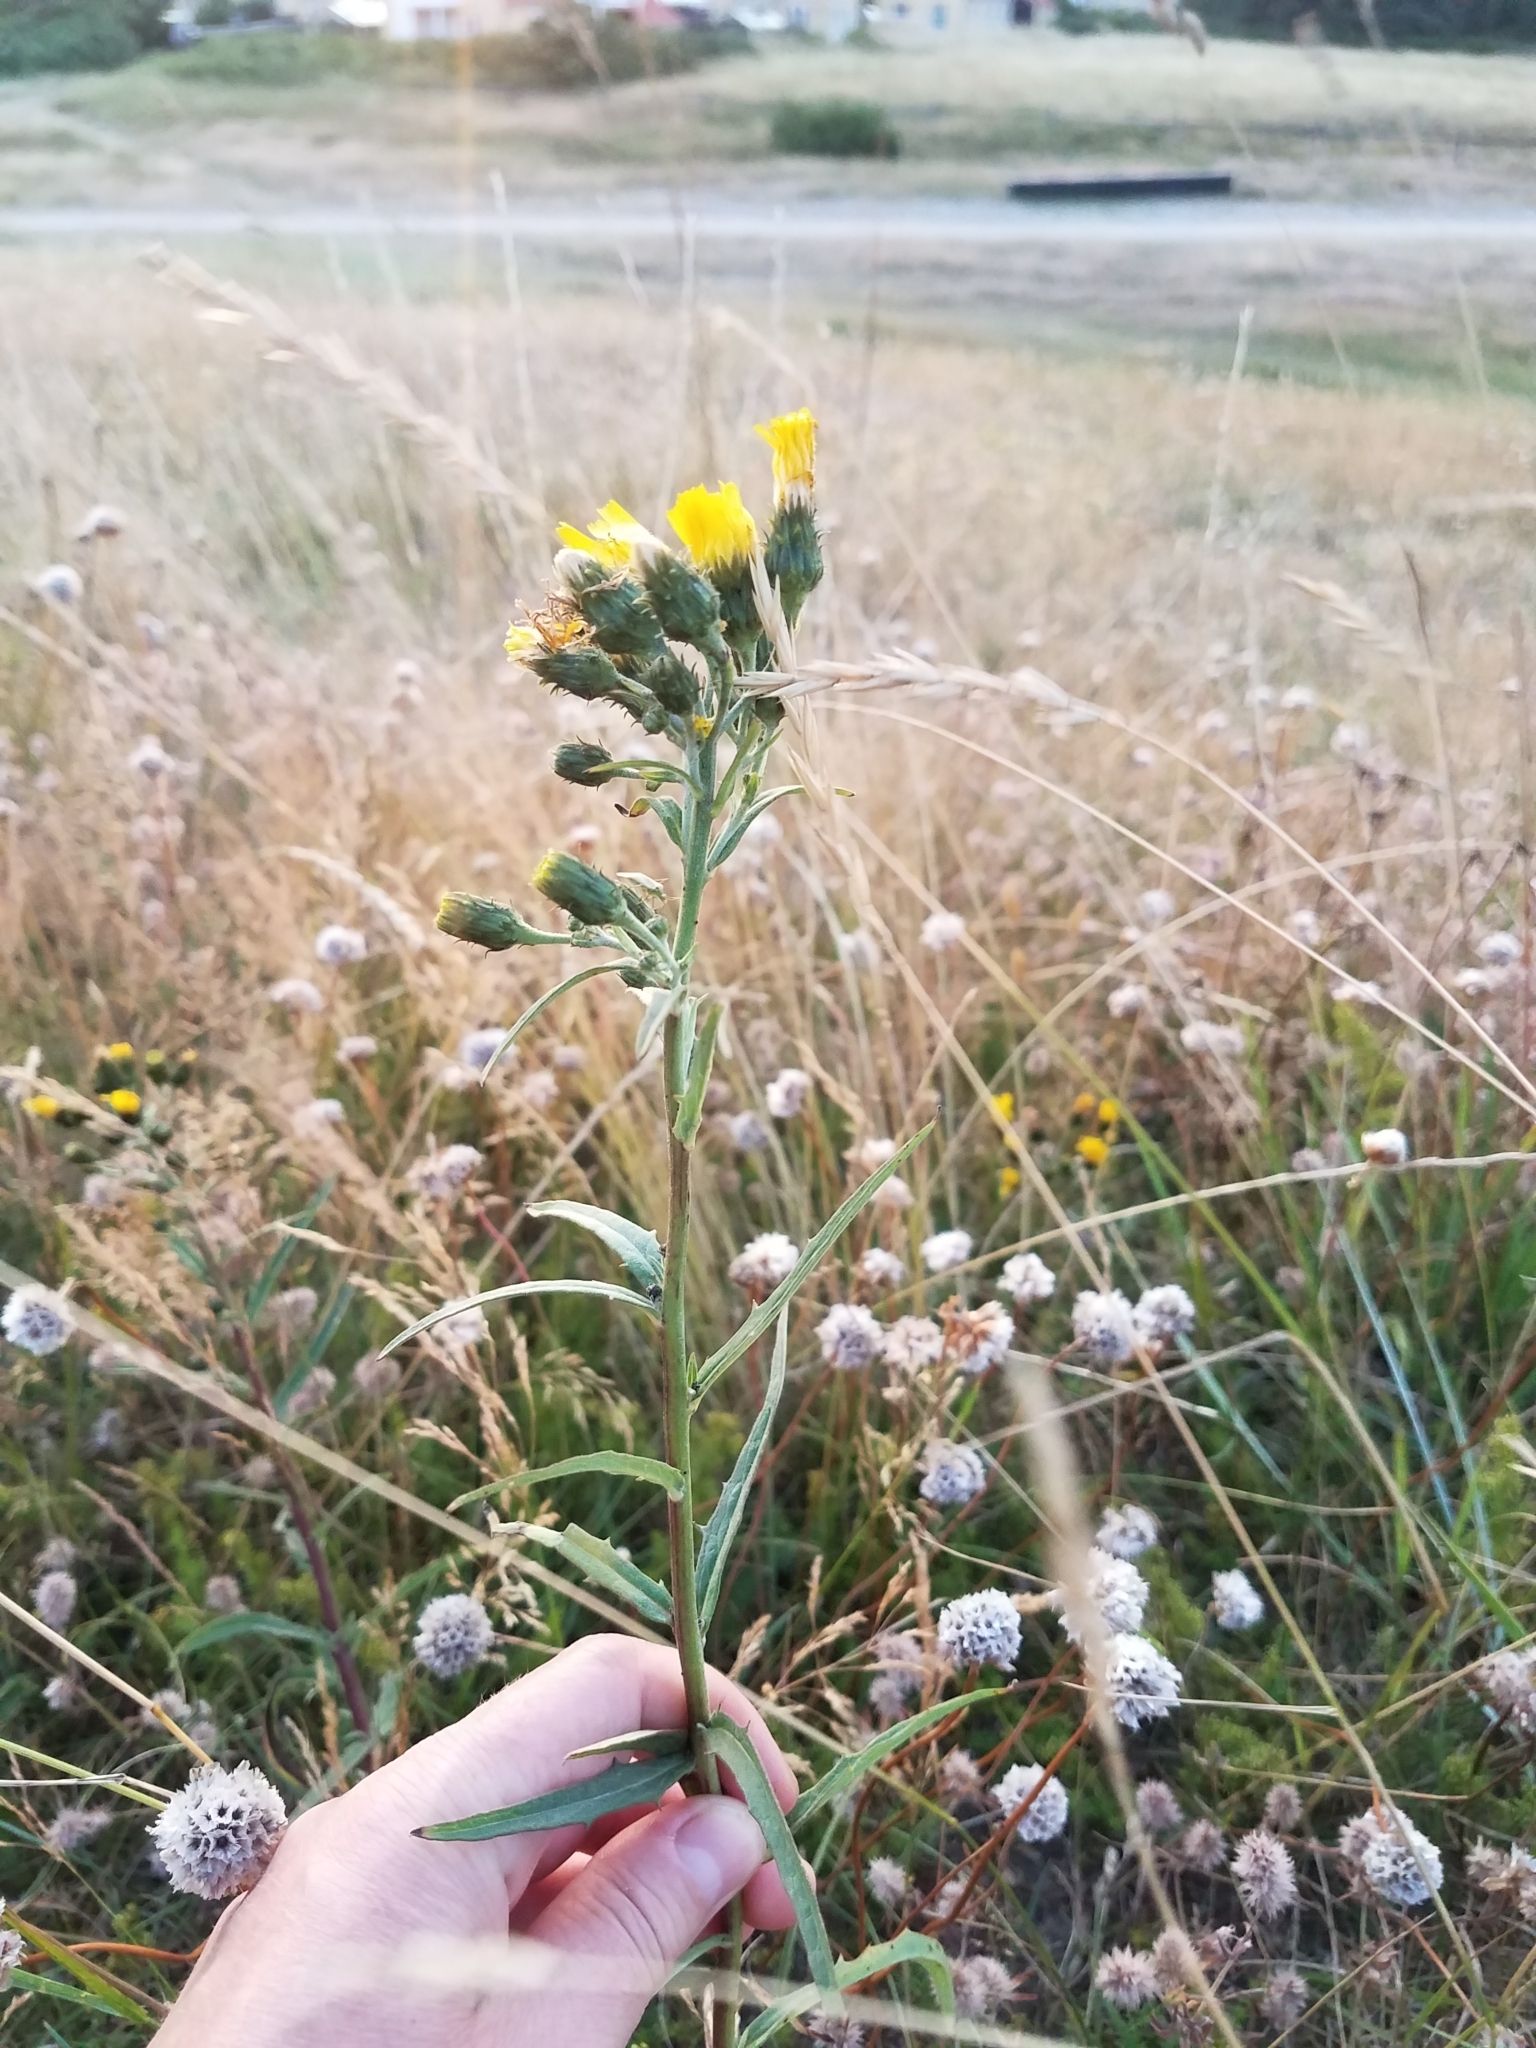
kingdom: Plantae
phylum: Tracheophyta
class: Magnoliopsida
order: Asterales
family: Asteraceae
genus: Hieracium
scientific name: Hieracium umbellatum
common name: Northern hawkweed
